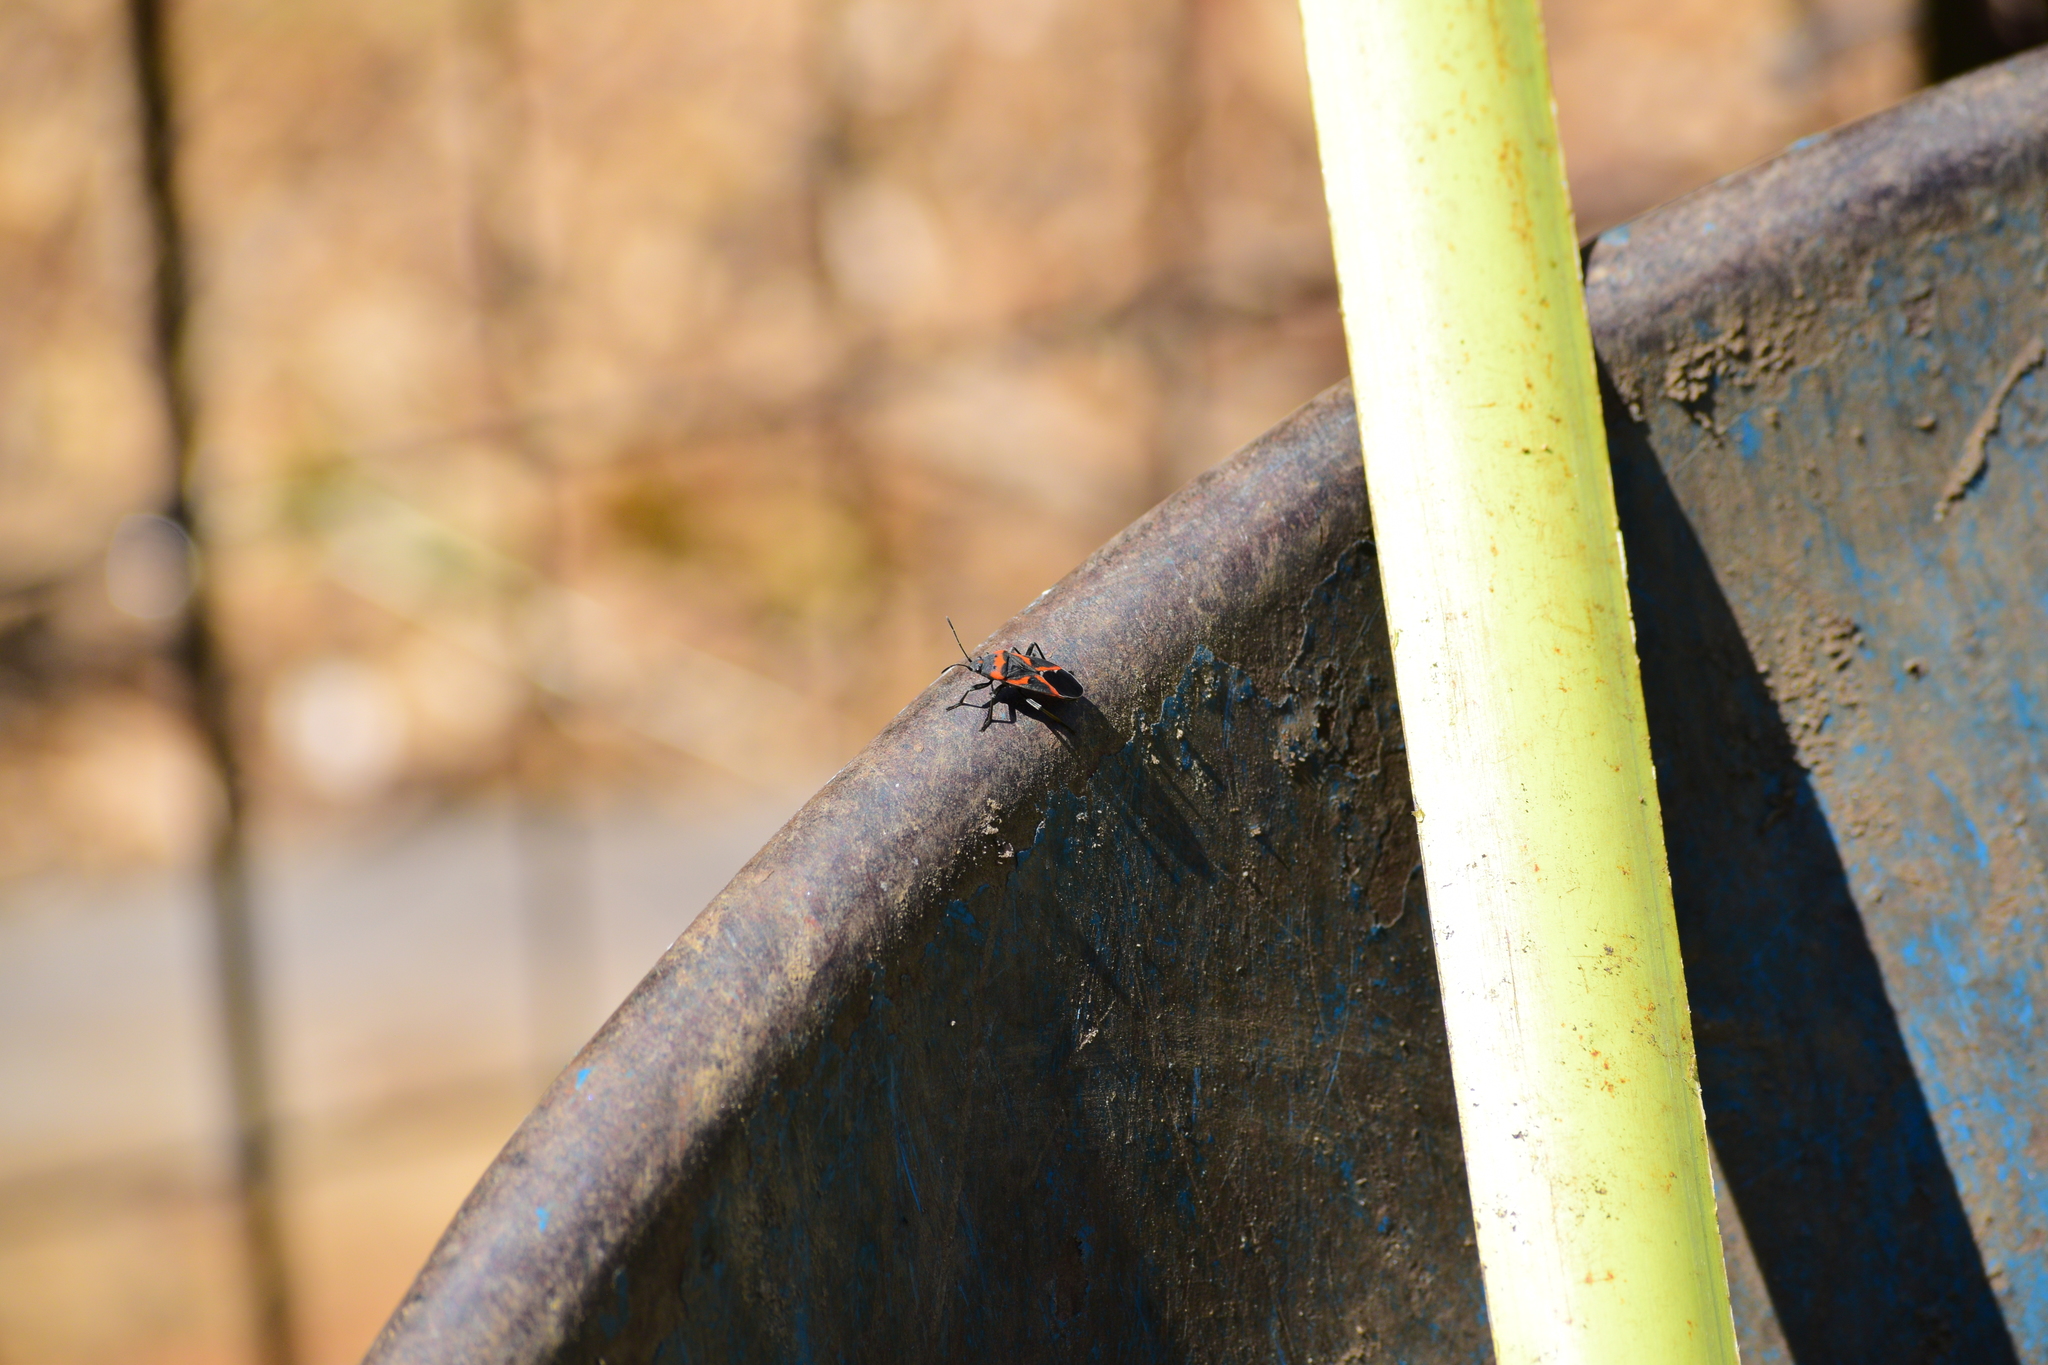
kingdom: Animalia
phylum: Arthropoda
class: Insecta
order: Hemiptera
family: Lygaeidae
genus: Lygaeus
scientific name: Lygaeus kalmii
